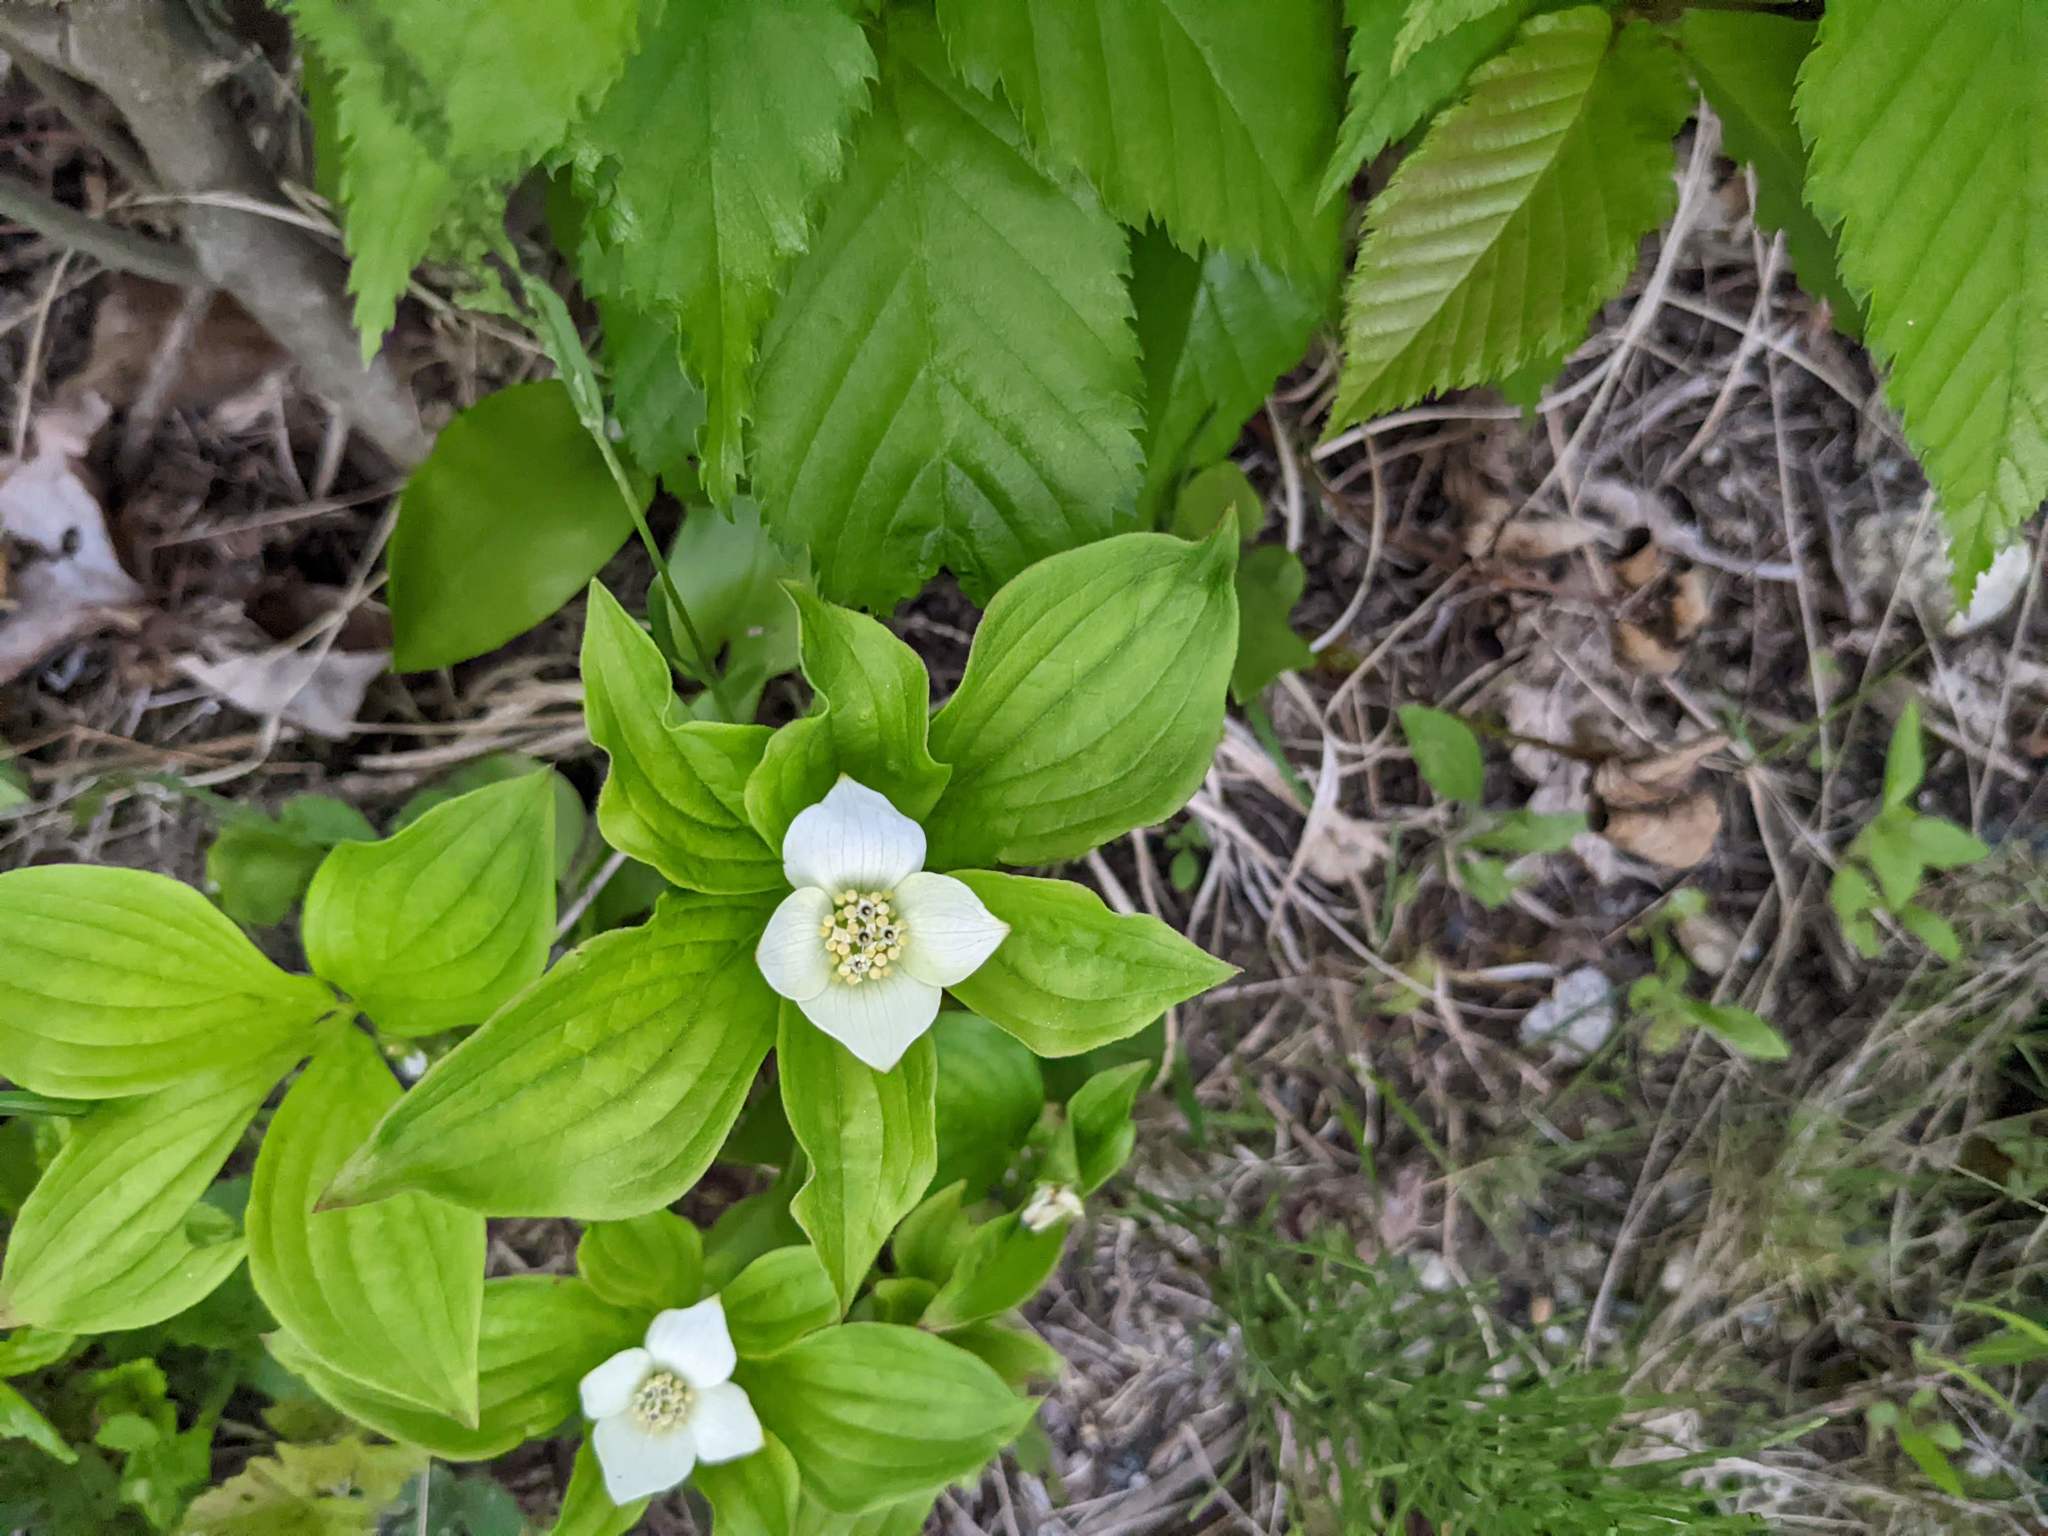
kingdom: Plantae
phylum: Tracheophyta
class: Magnoliopsida
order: Cornales
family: Cornaceae
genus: Cornus
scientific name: Cornus canadensis
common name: Creeping dogwood
